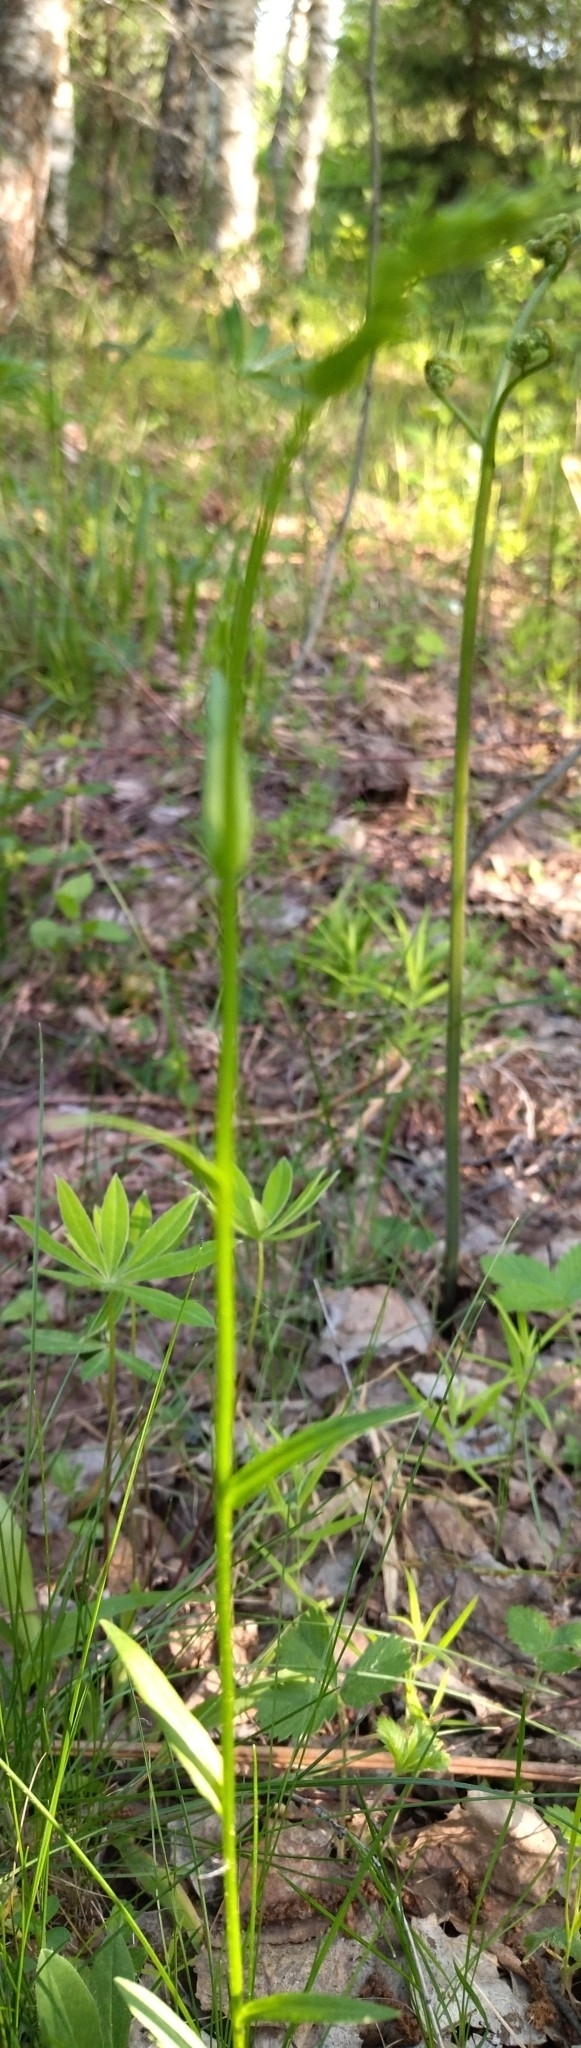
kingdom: Plantae
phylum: Tracheophyta
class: Magnoliopsida
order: Asterales
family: Campanulaceae
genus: Campanula
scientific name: Campanula persicifolia
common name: Peach-leaved bellflower
